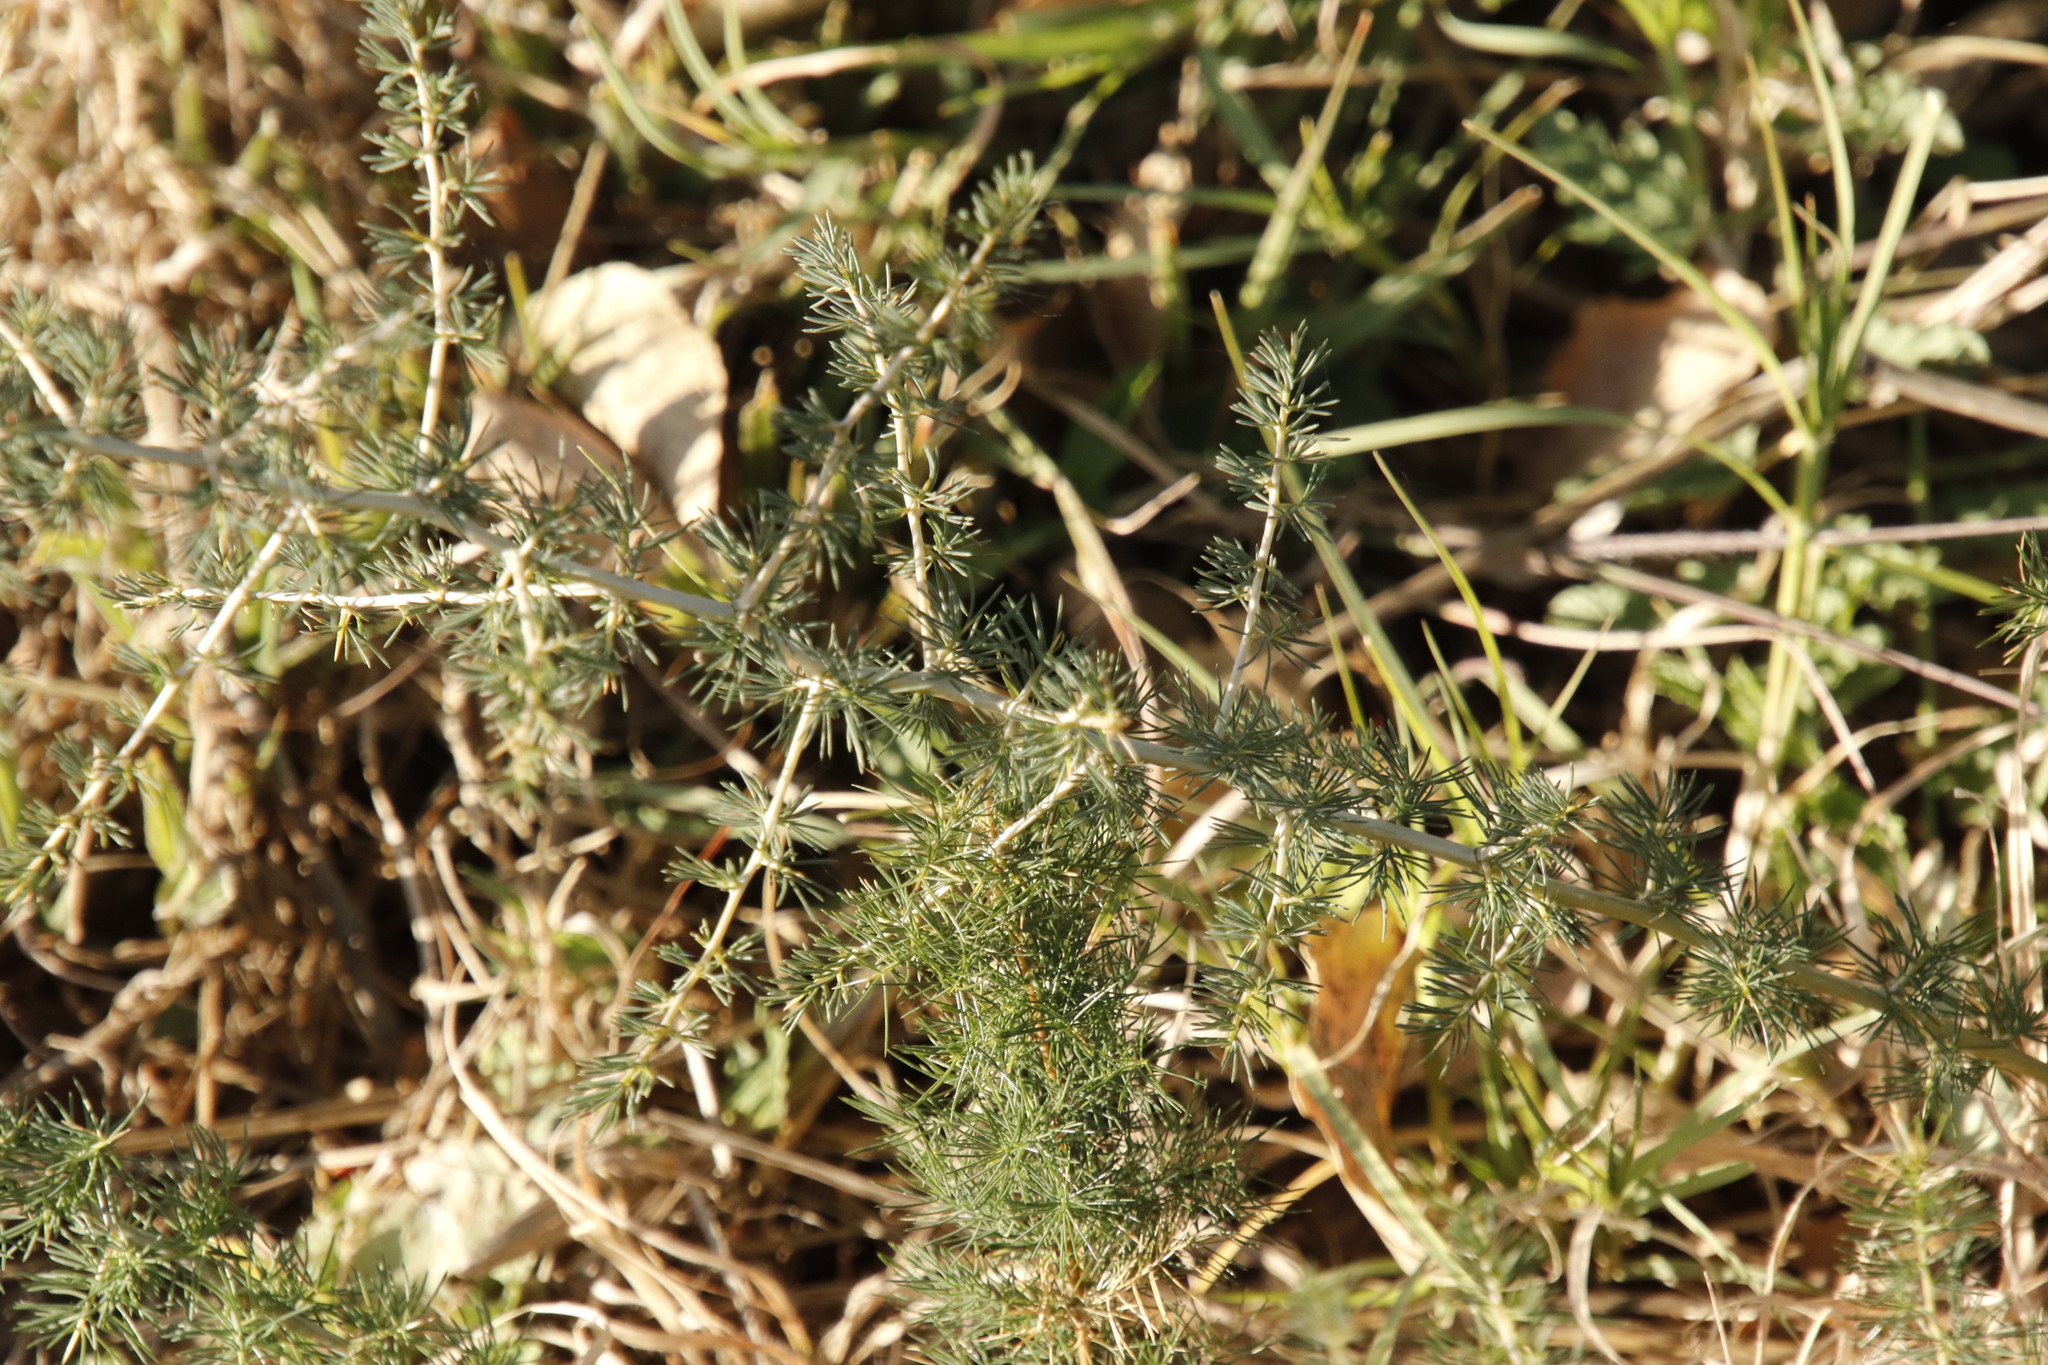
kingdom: Plantae
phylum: Tracheophyta
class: Liliopsida
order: Asparagales
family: Asparagaceae
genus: Asparagus
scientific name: Asparagus suaveolens
